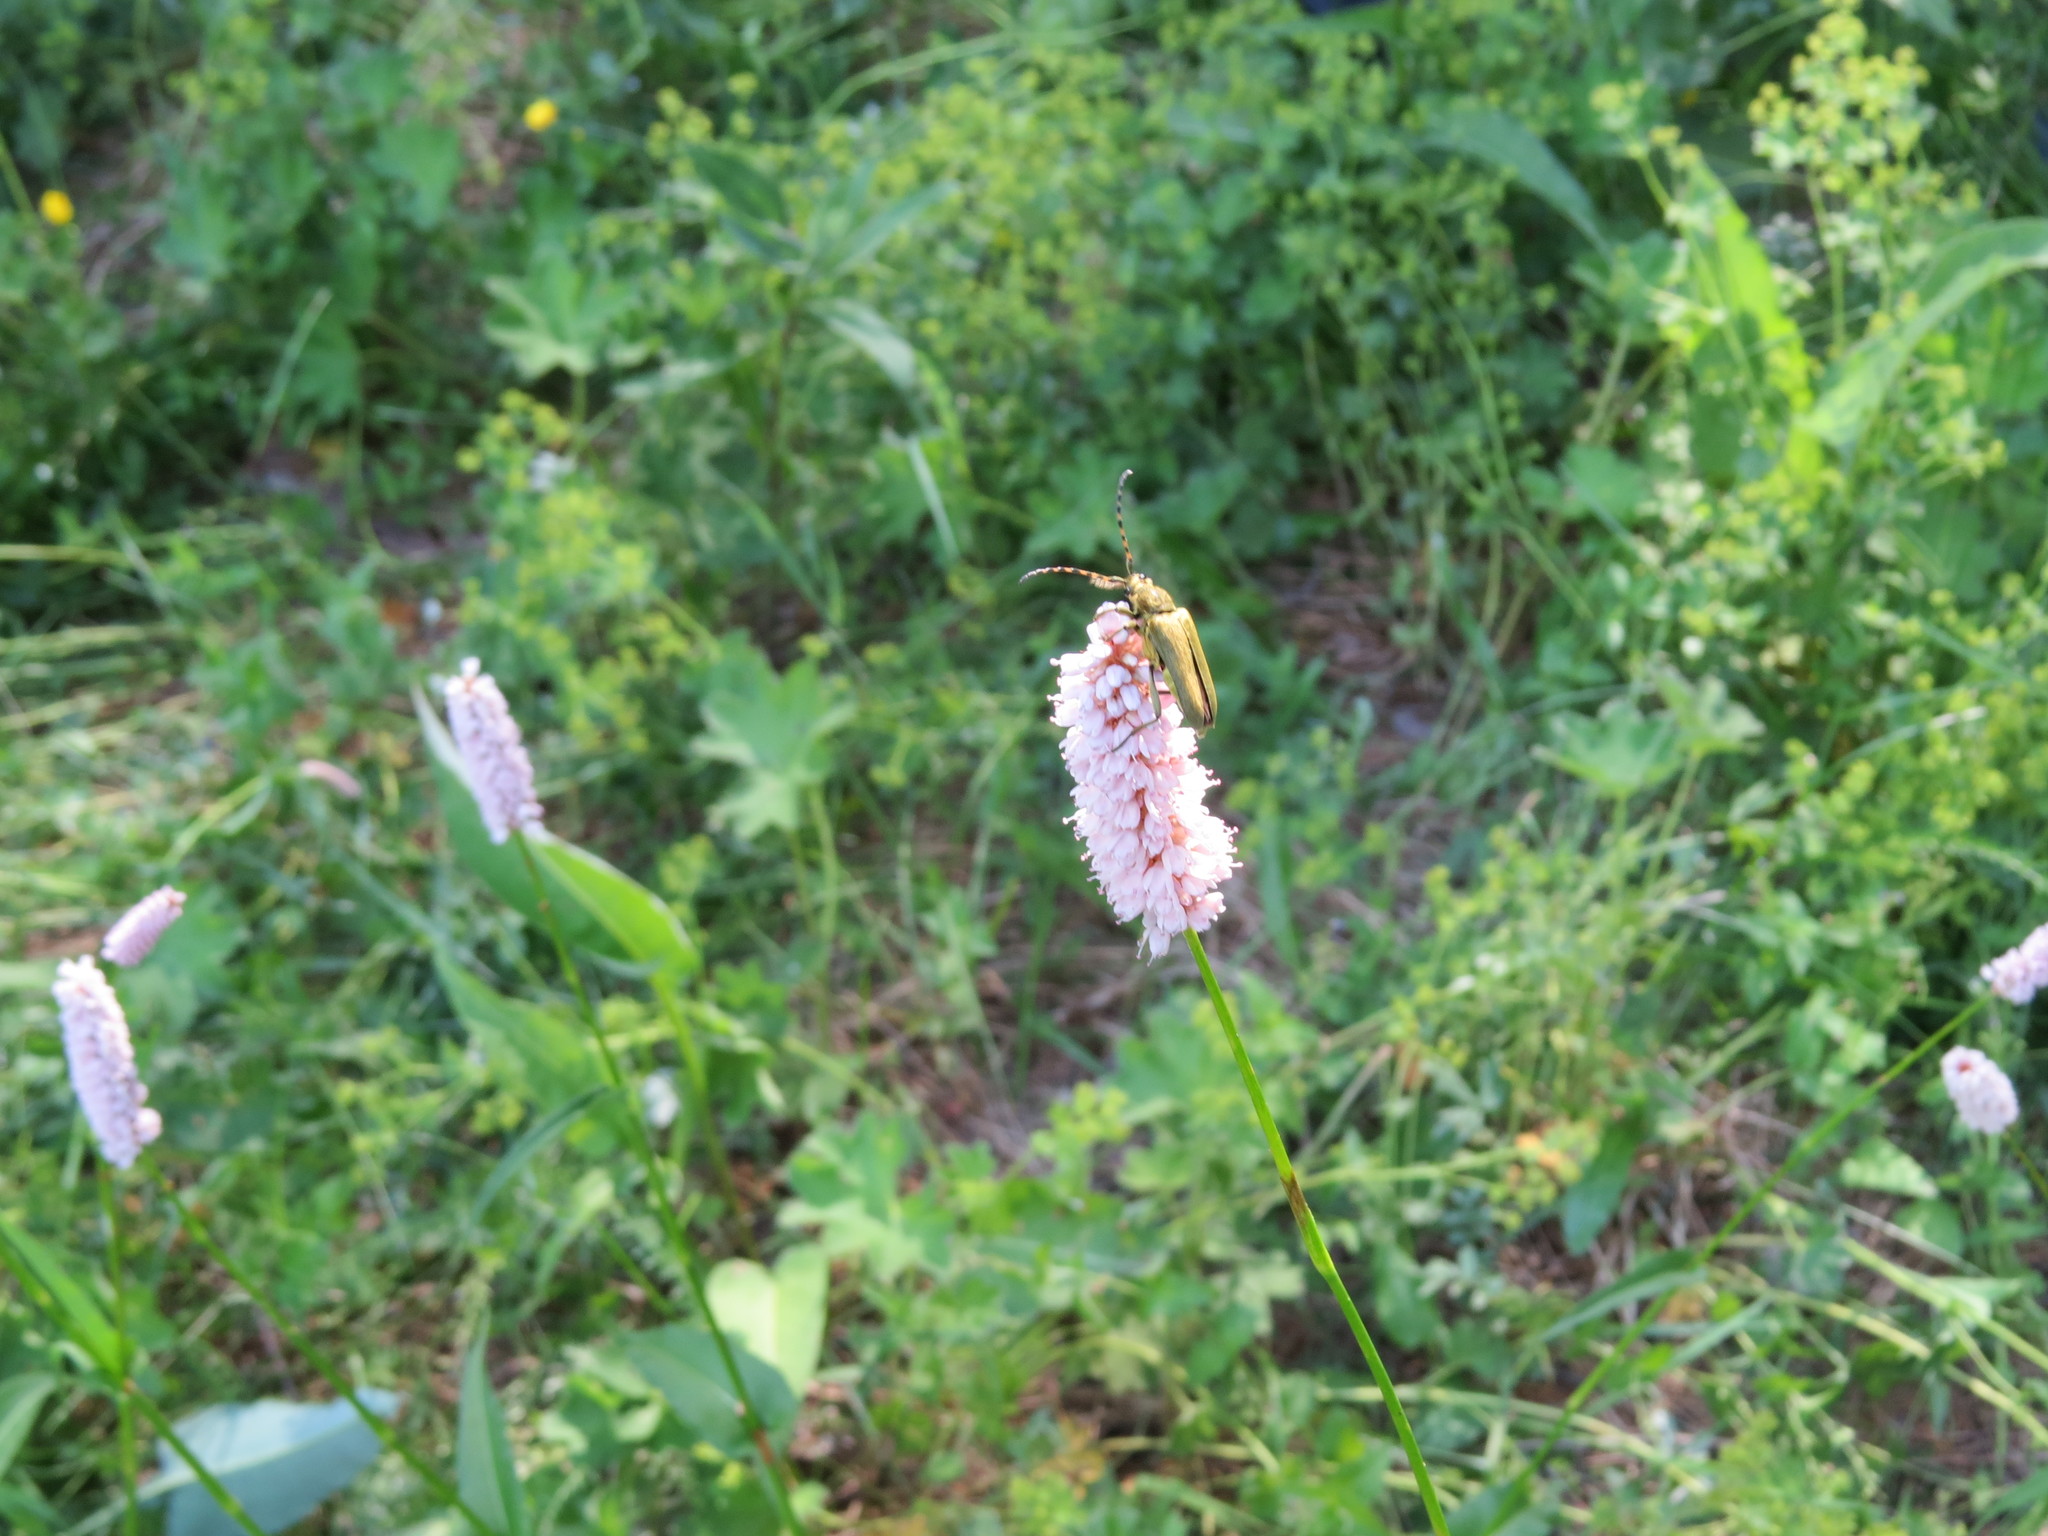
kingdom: Animalia
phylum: Arthropoda
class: Insecta
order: Coleoptera
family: Cerambycidae
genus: Lepturobosca
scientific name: Lepturobosca virens
